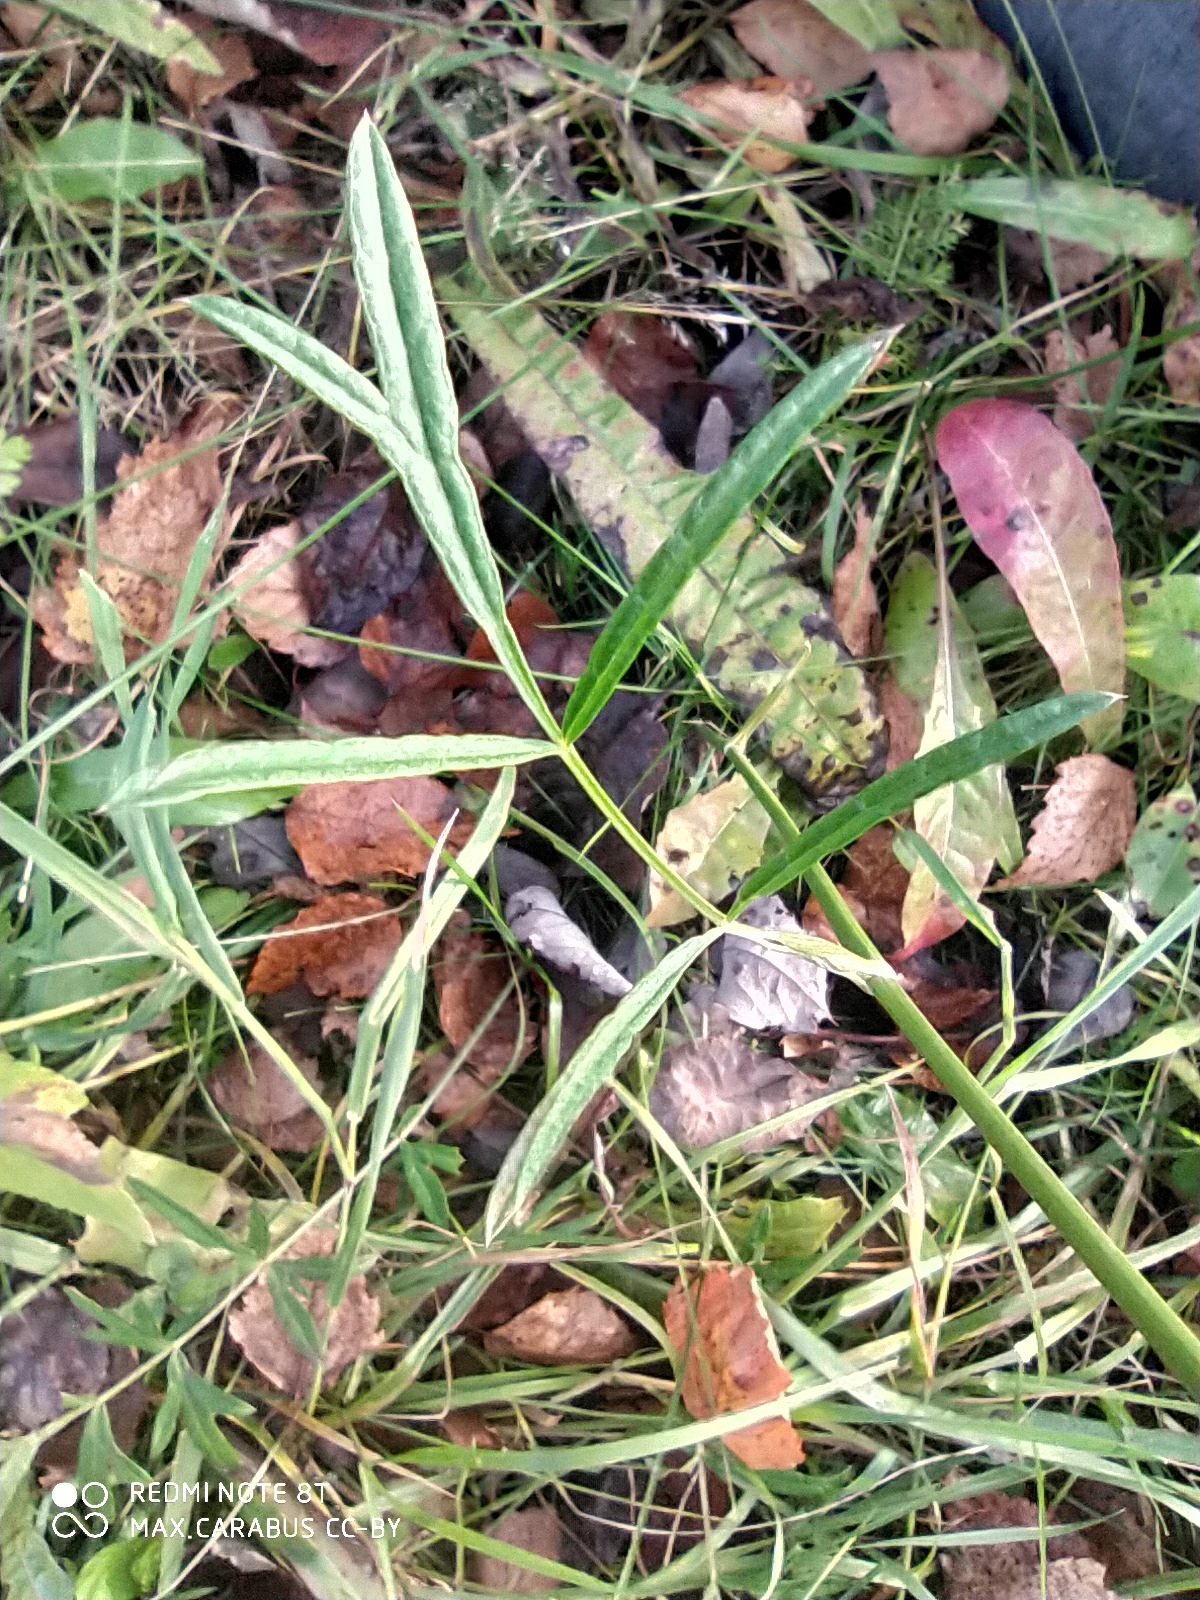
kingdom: Plantae
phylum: Tracheophyta
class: Magnoliopsida
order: Apiales
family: Apiaceae
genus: Pimpinella
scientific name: Pimpinella saxifraga
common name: Burnet-saxifrage
